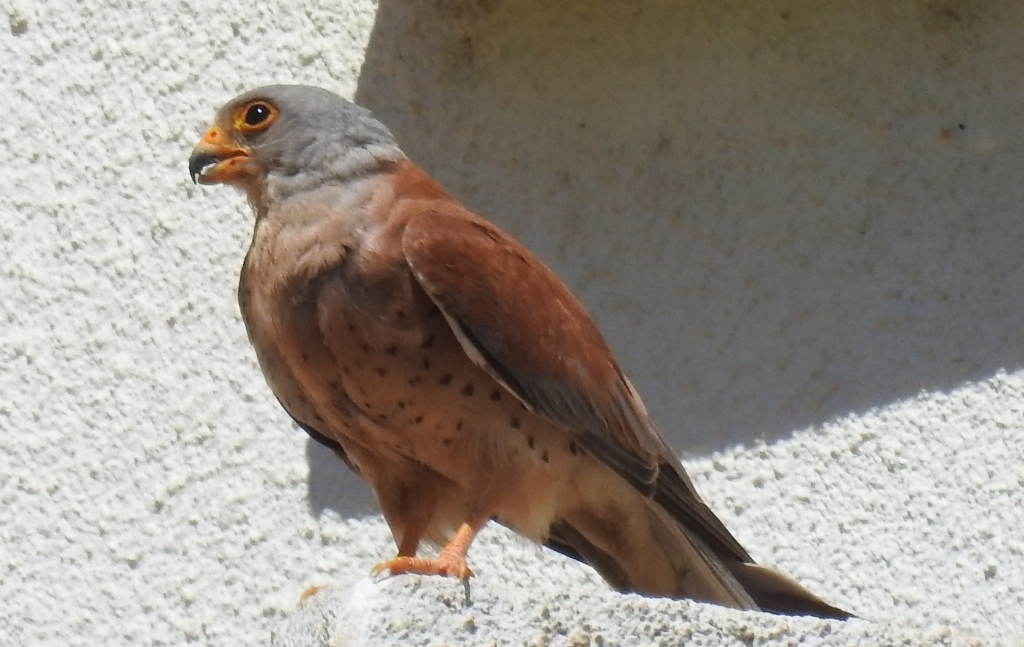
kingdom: Animalia
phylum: Chordata
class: Aves
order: Falconiformes
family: Falconidae
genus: Falco
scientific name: Falco naumanni
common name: Lesser kestrel
